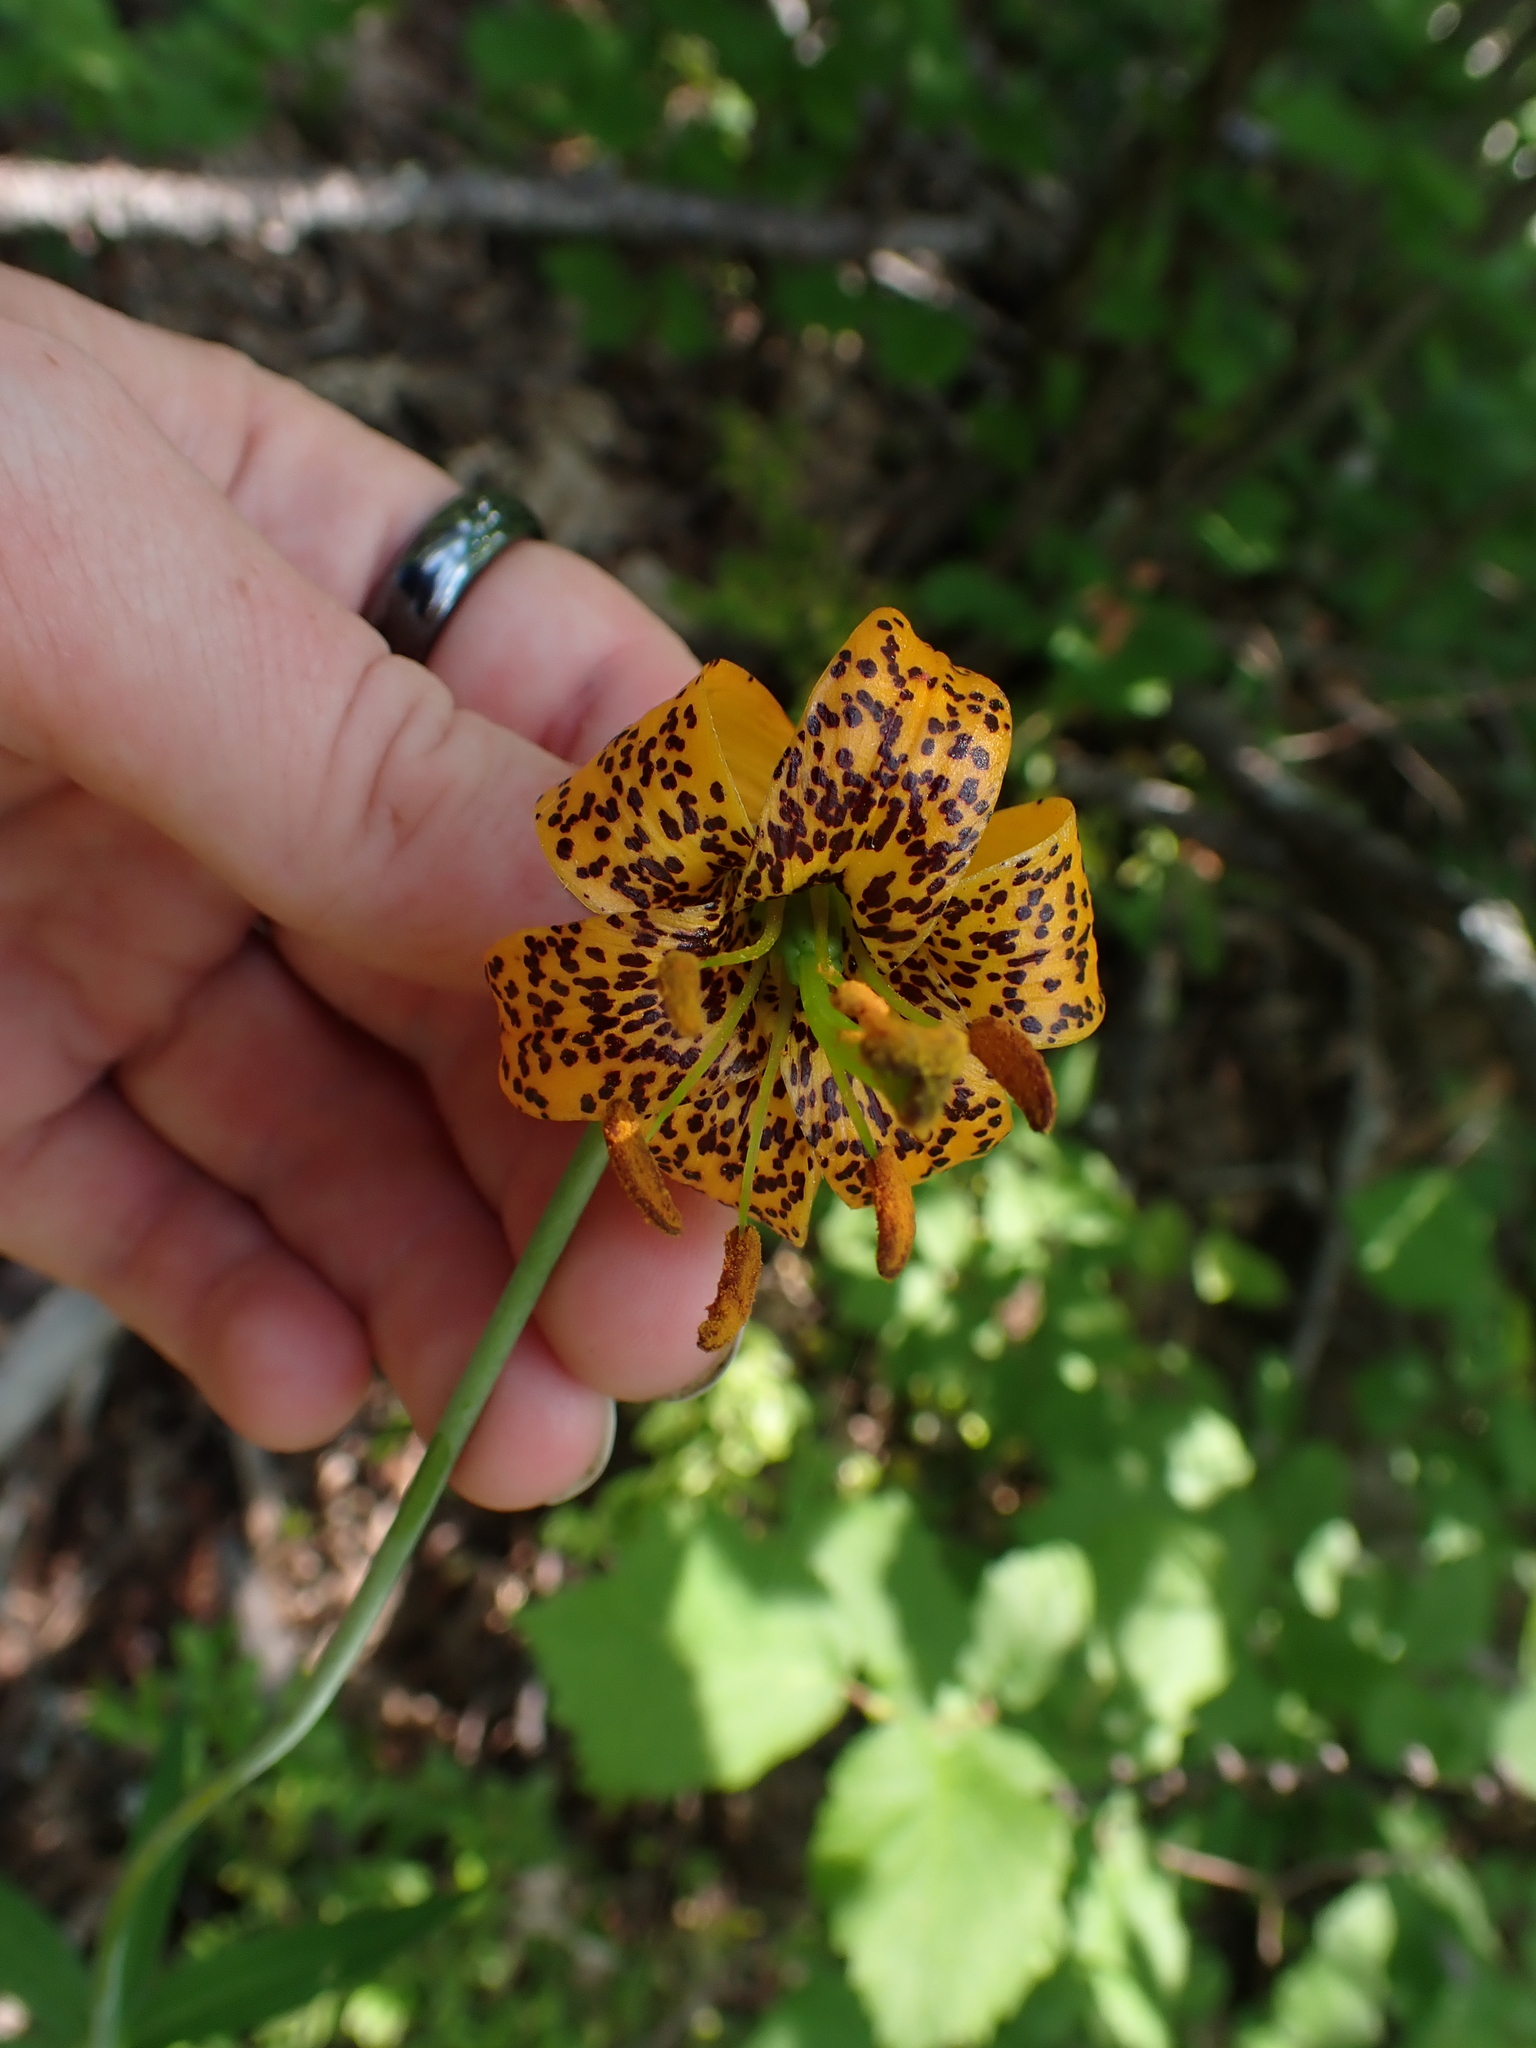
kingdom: Plantae
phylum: Tracheophyta
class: Liliopsida
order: Liliales
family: Liliaceae
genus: Lilium
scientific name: Lilium columbianum
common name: Columbia lily
